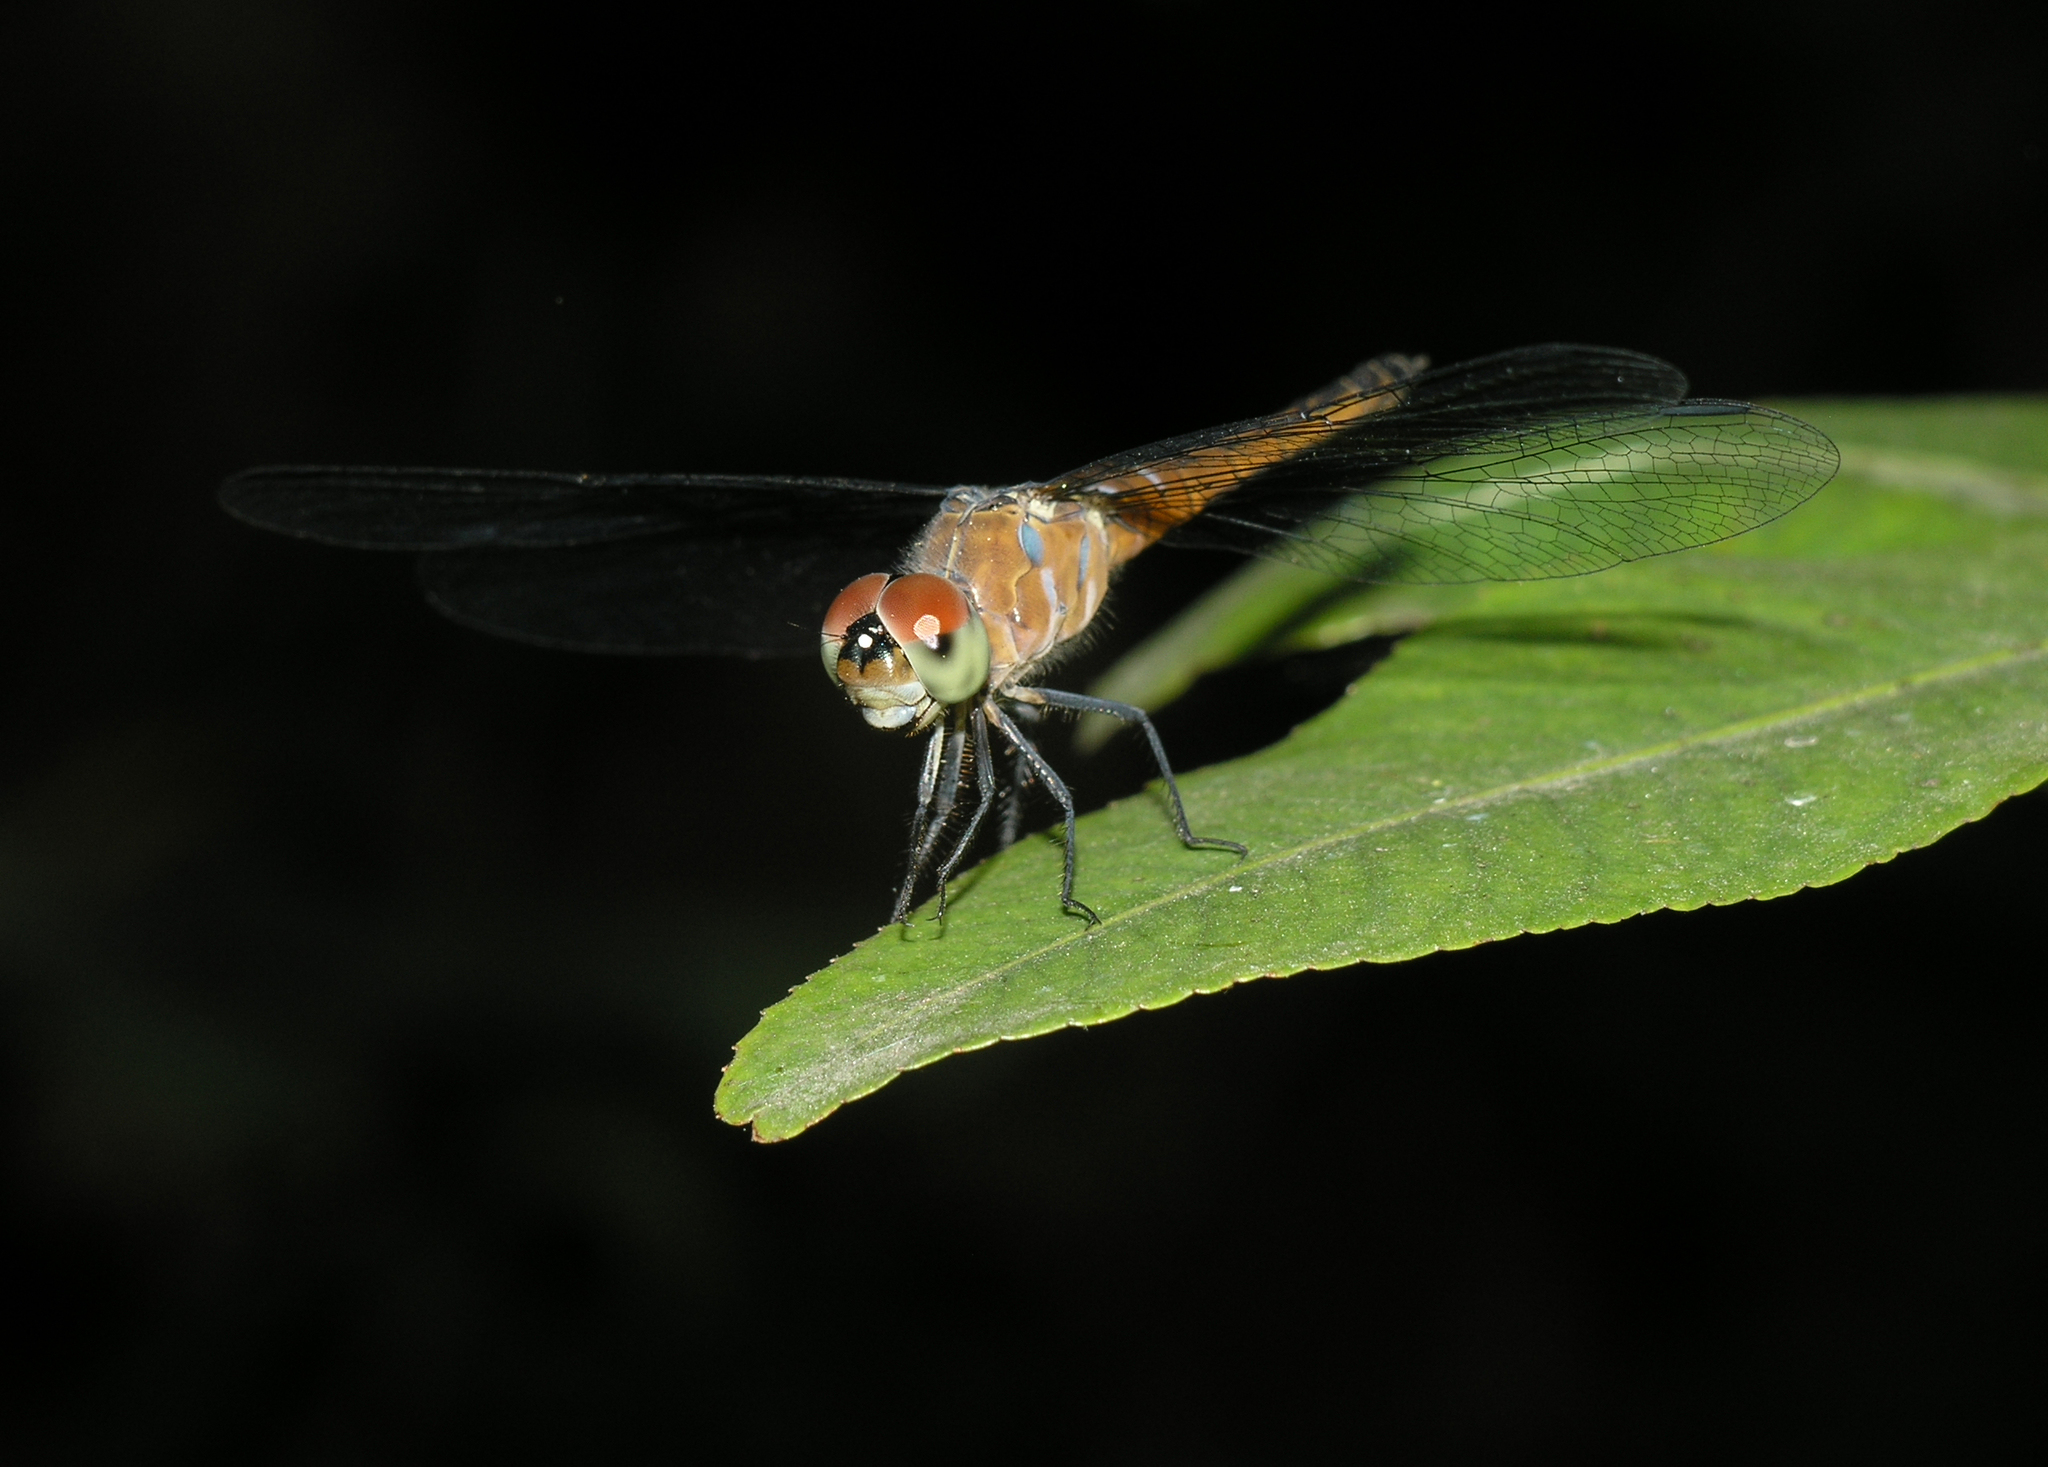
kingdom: Animalia
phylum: Arthropoda
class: Insecta
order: Odonata
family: Libellulidae
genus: Brachydiplax
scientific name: Brachydiplax chalybea
